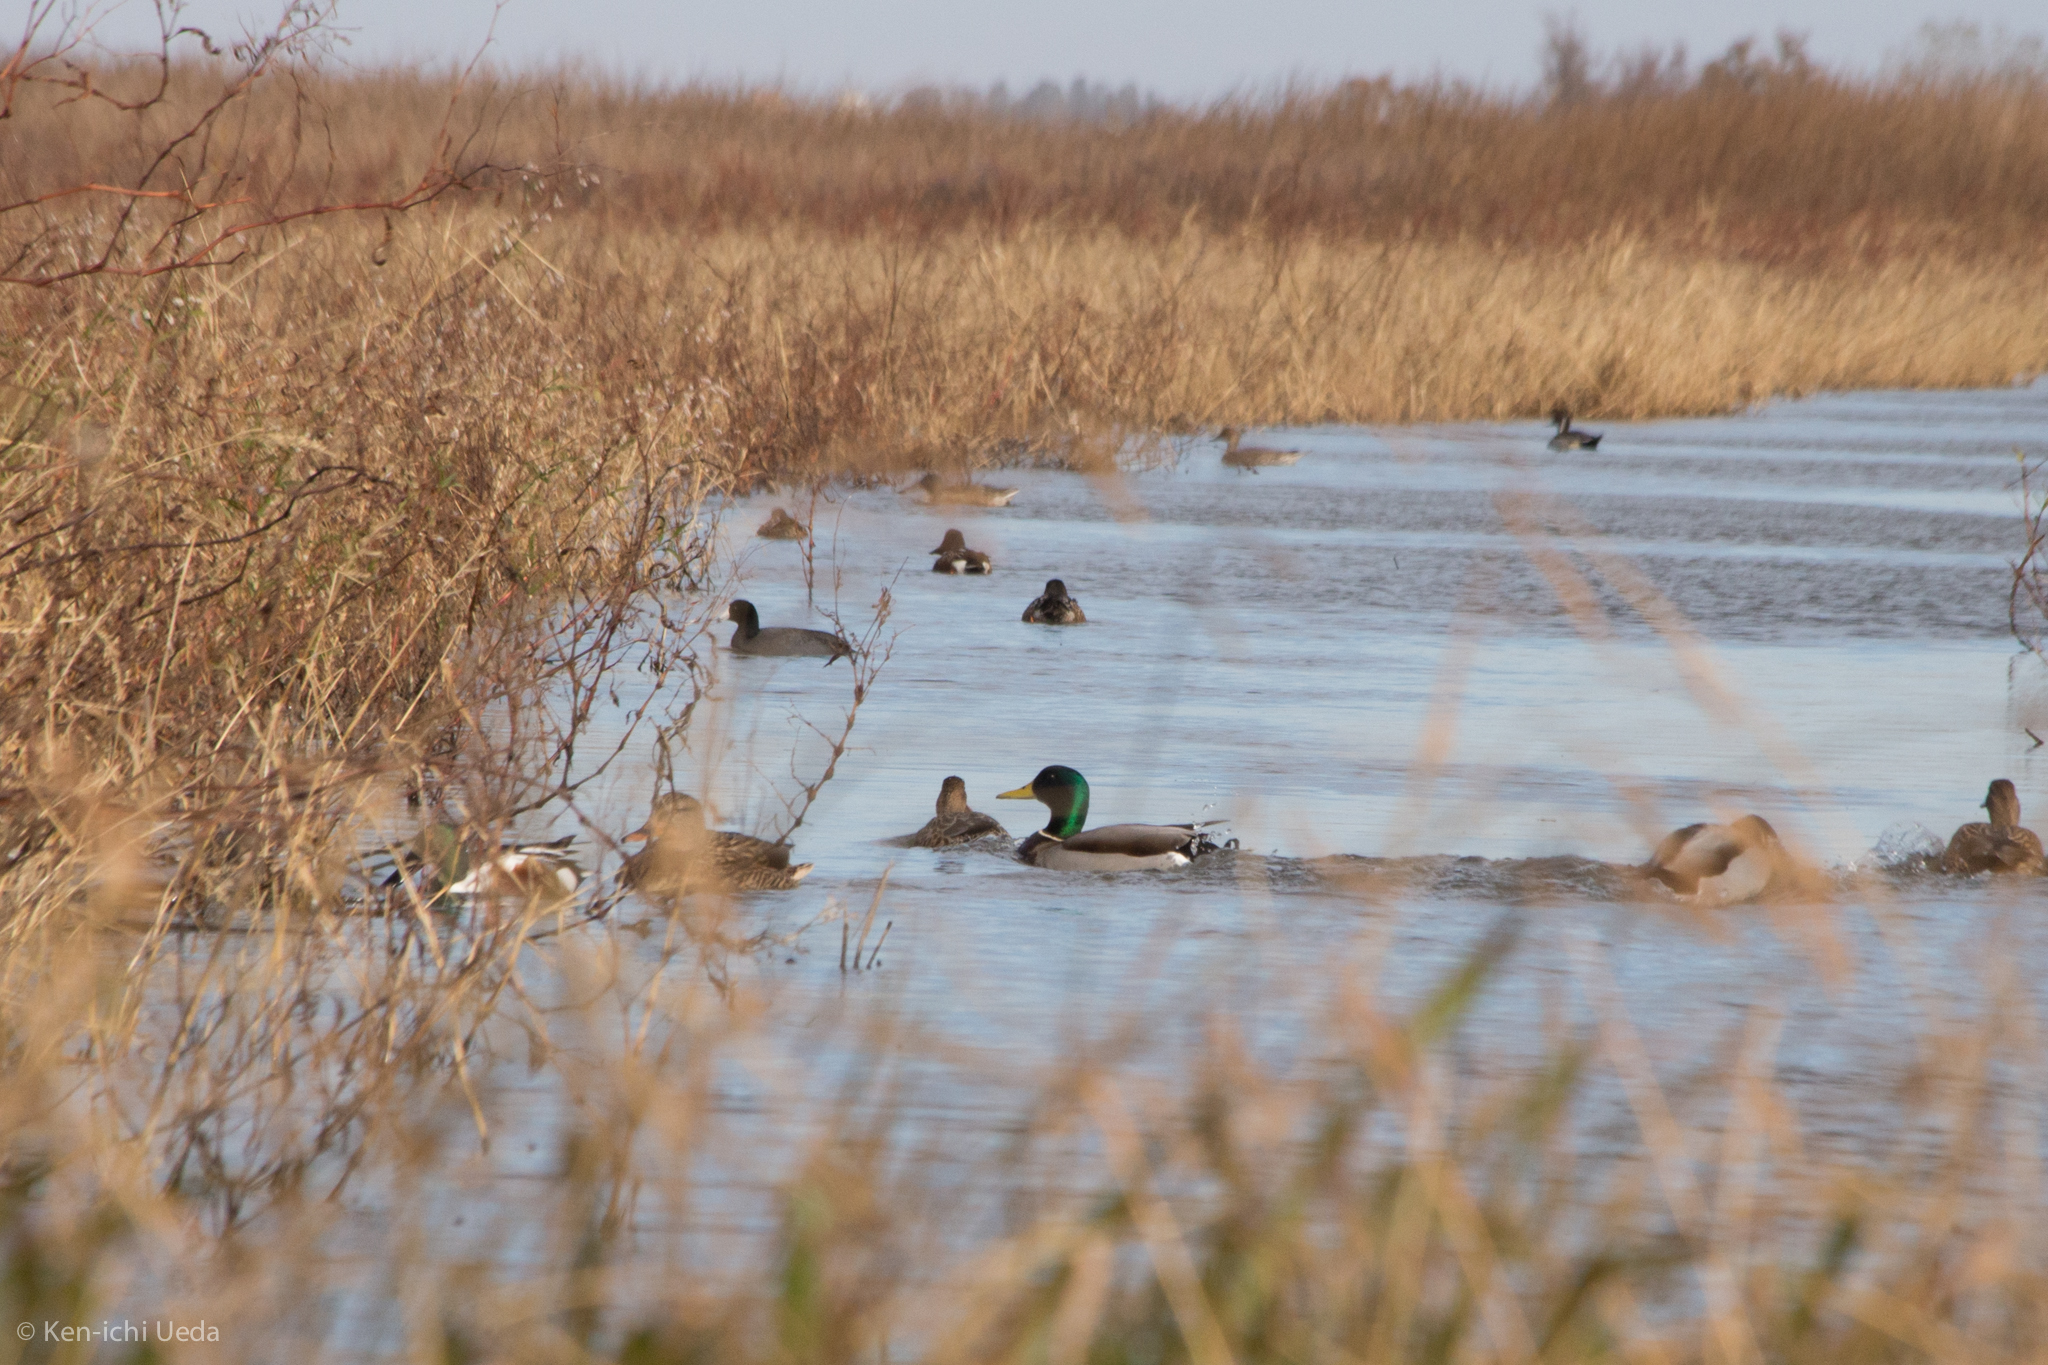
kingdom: Animalia
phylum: Chordata
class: Aves
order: Anseriformes
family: Anatidae
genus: Anas
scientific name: Anas platyrhynchos
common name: Mallard
